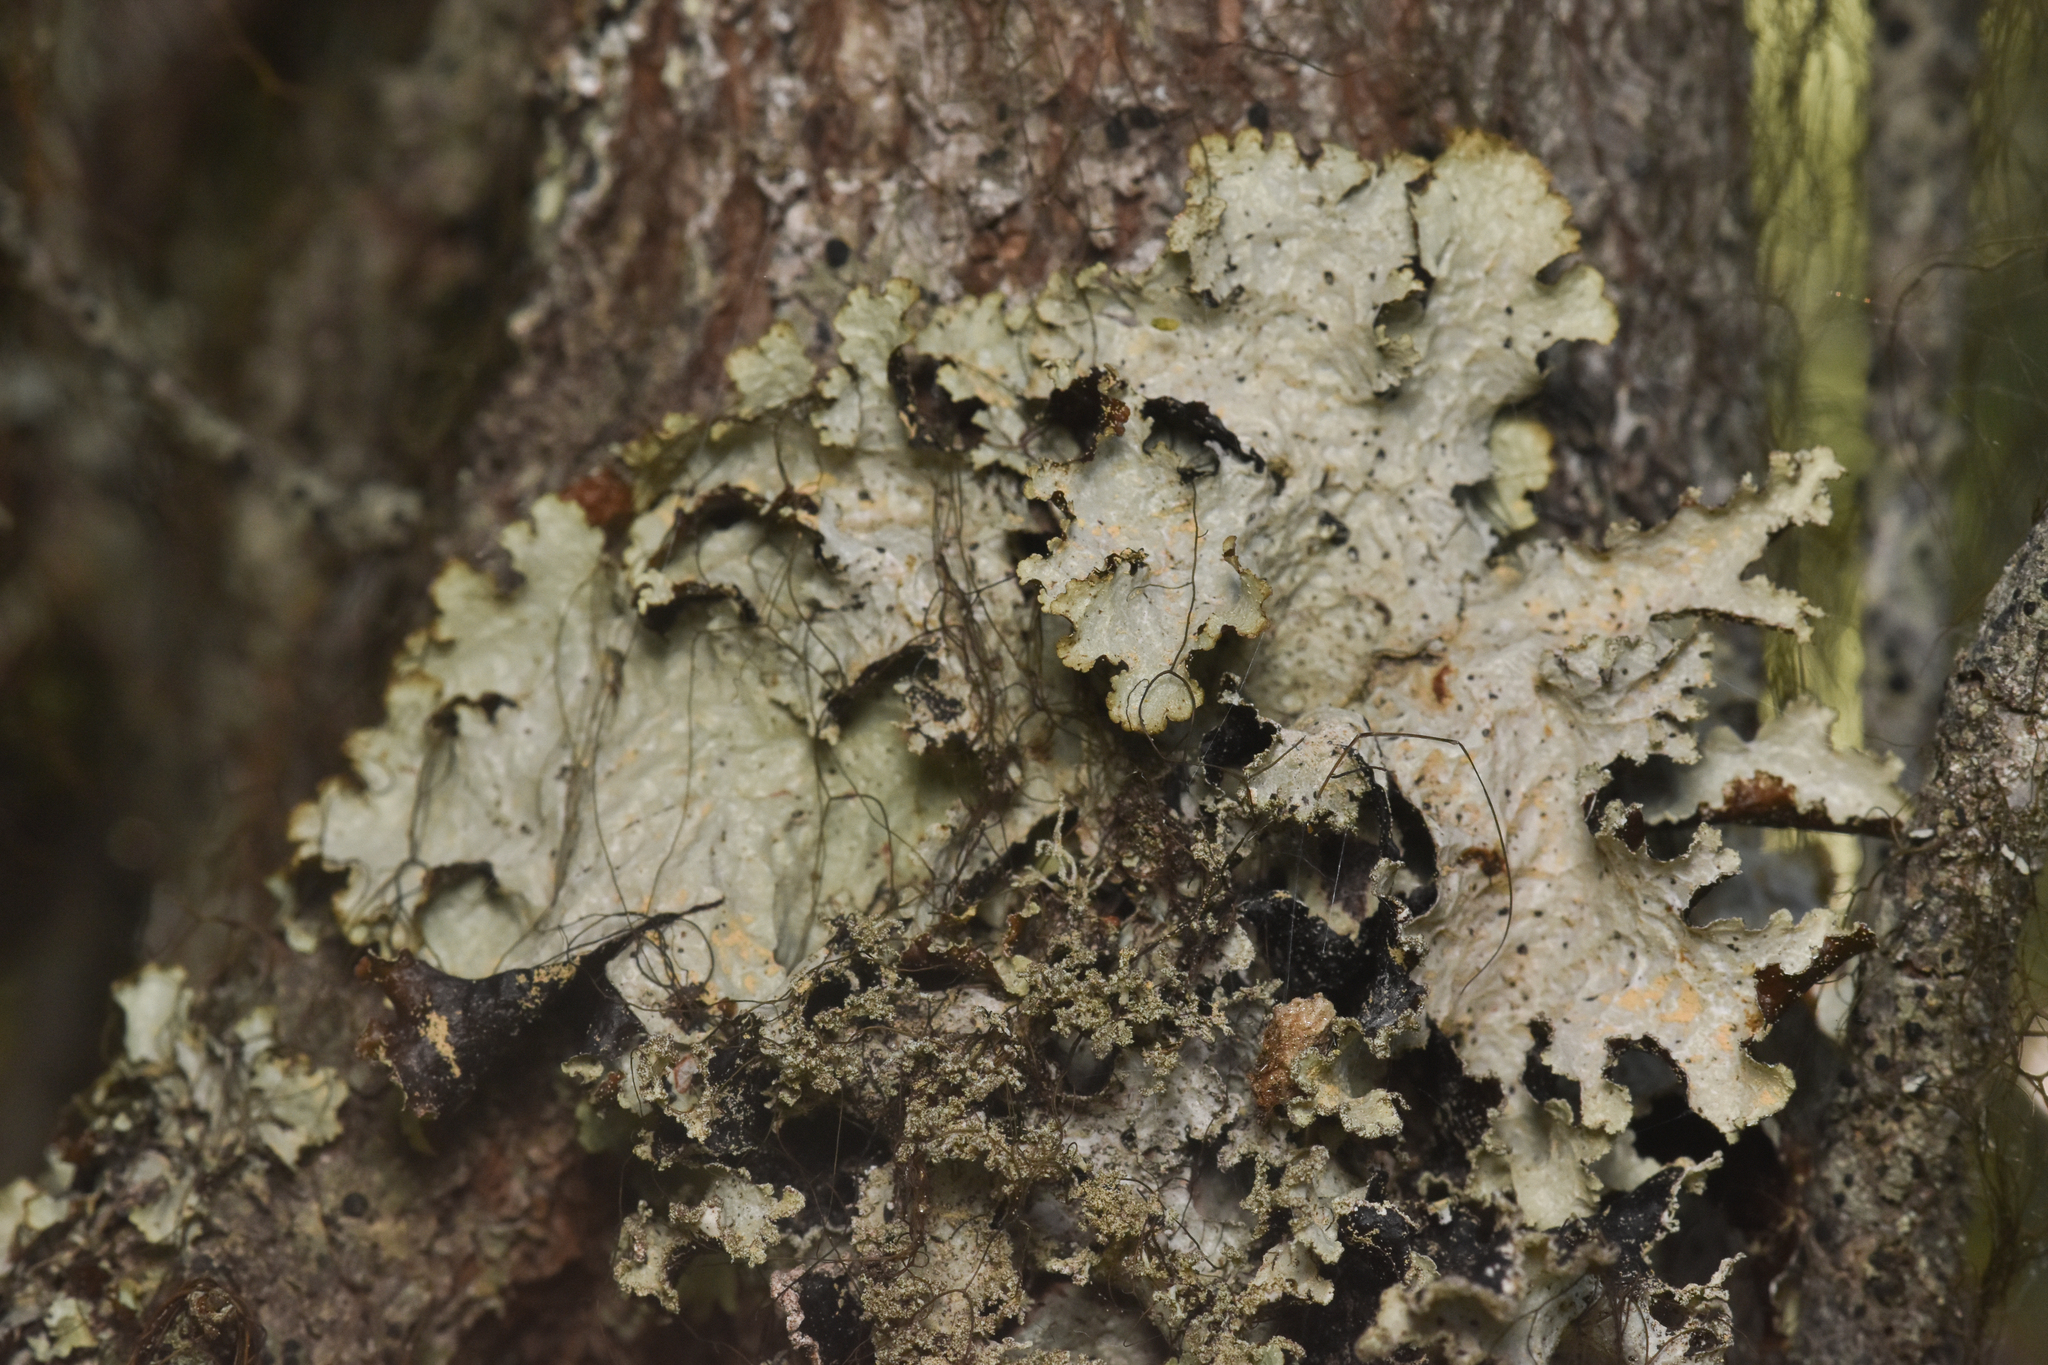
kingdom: Fungi
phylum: Ascomycota
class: Lecanoromycetes
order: Lecanorales
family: Parmeliaceae
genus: Platismatia
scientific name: Platismatia glauca
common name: Varied rag lichen
